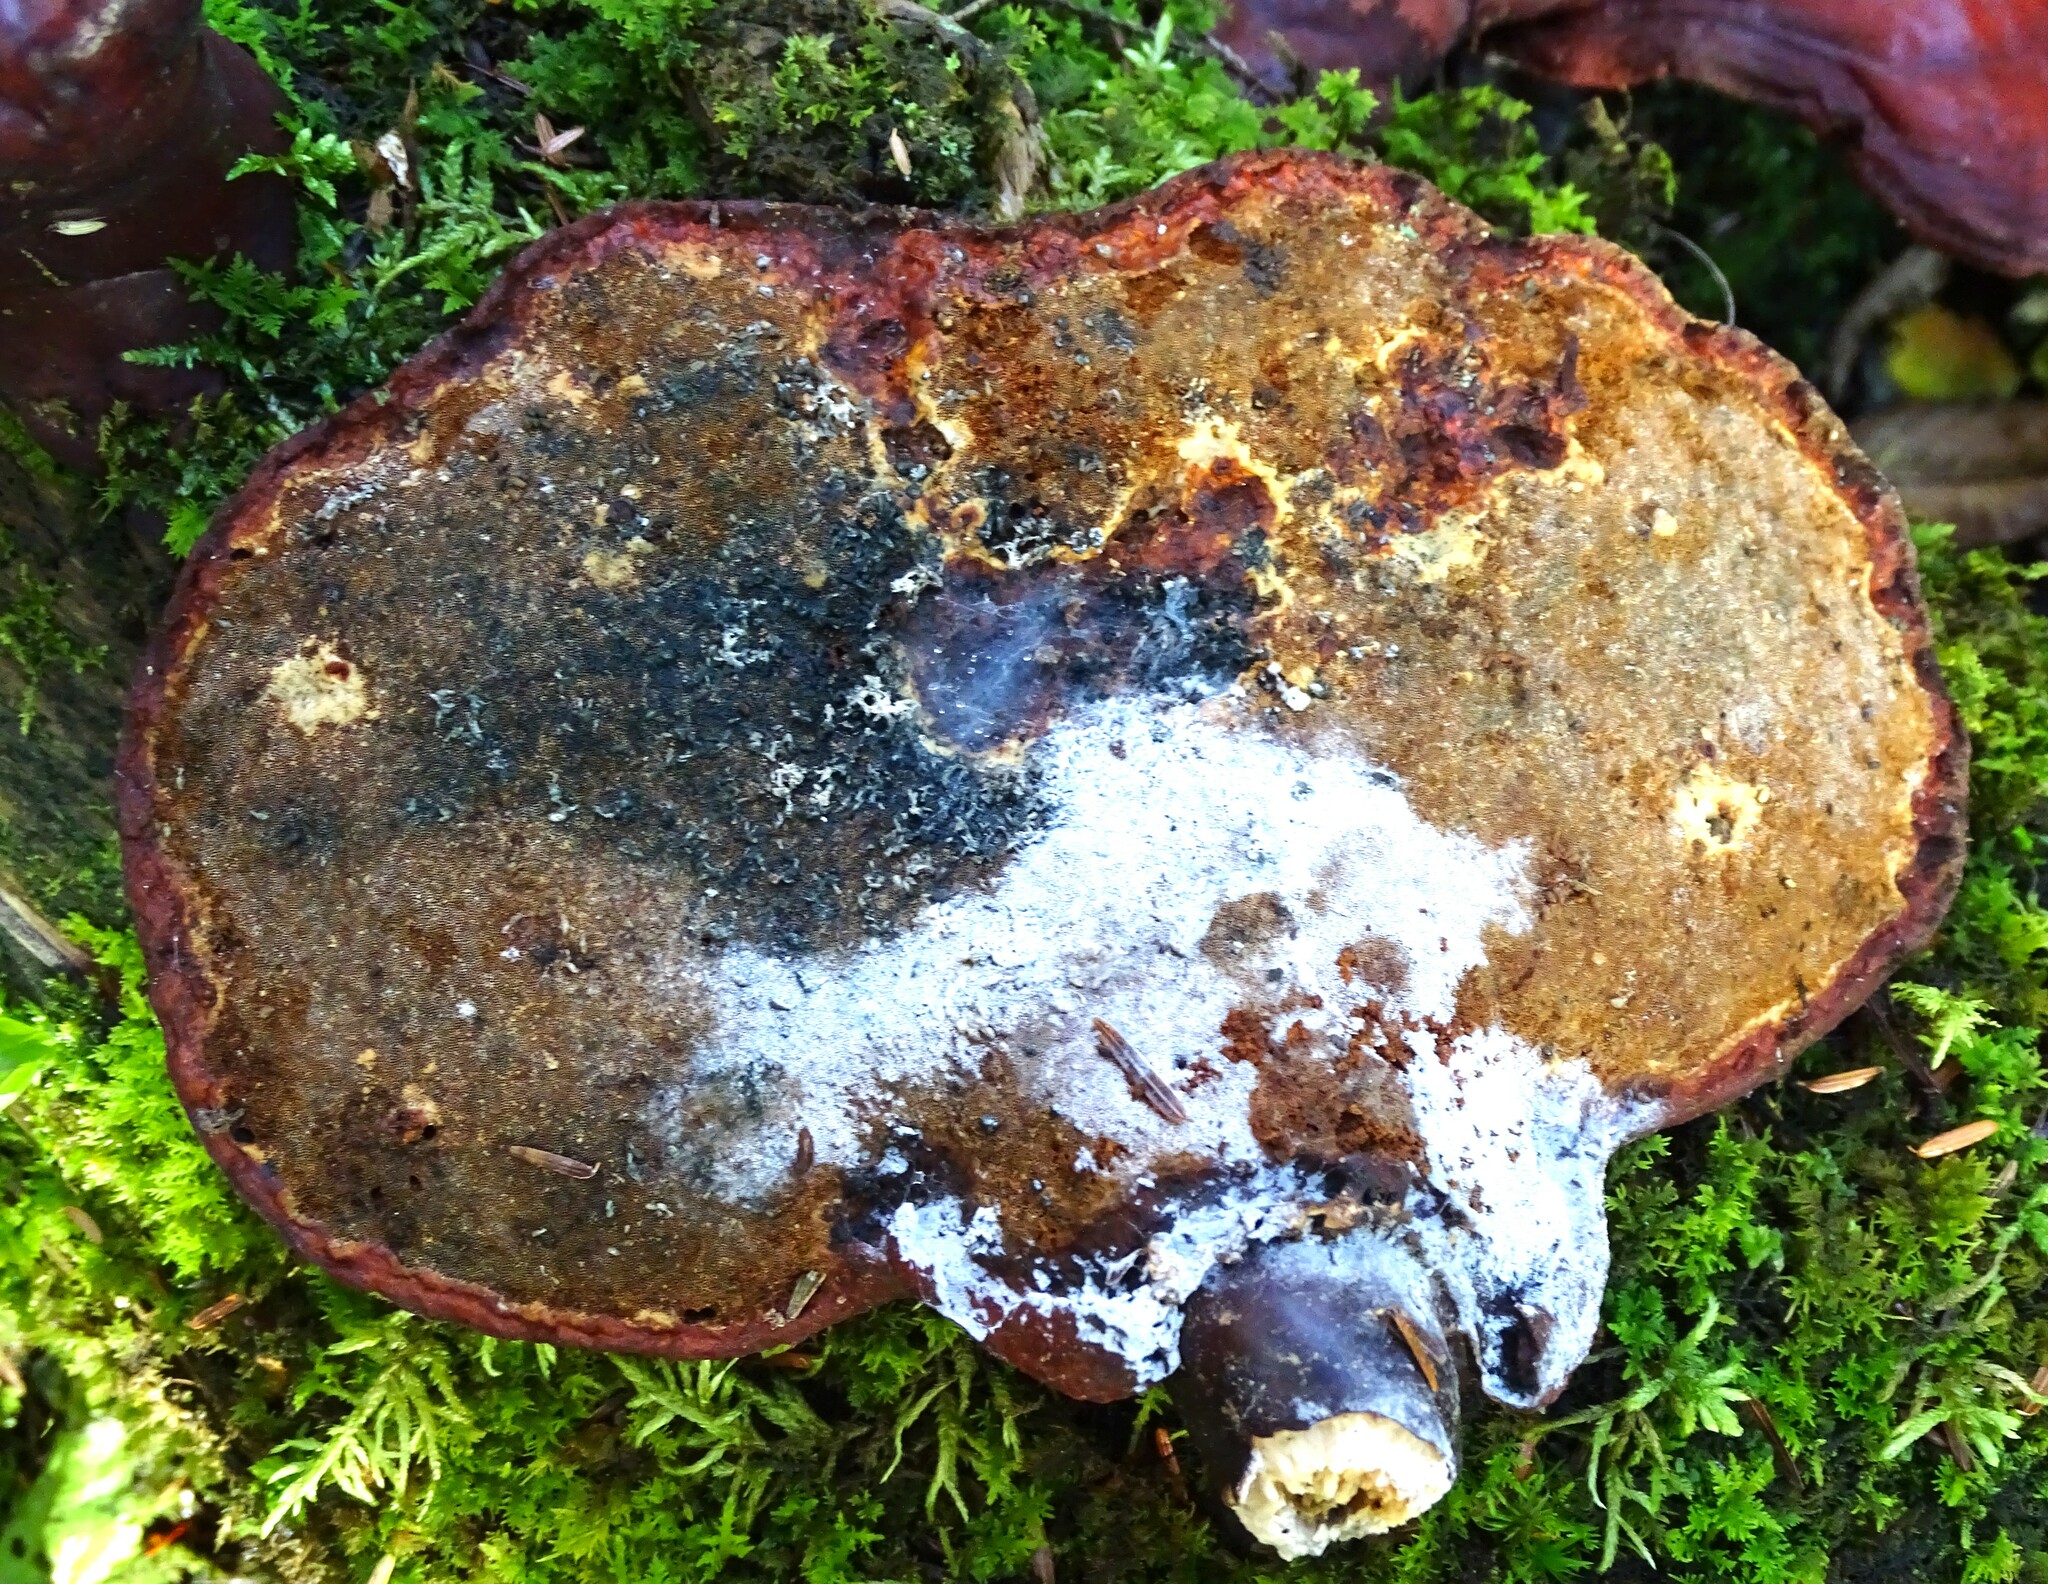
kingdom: Fungi
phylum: Basidiomycota
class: Agaricomycetes
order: Polyporales
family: Polyporaceae
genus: Ganoderma
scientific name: Ganoderma tsugae
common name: Hemlock varnish shelf
